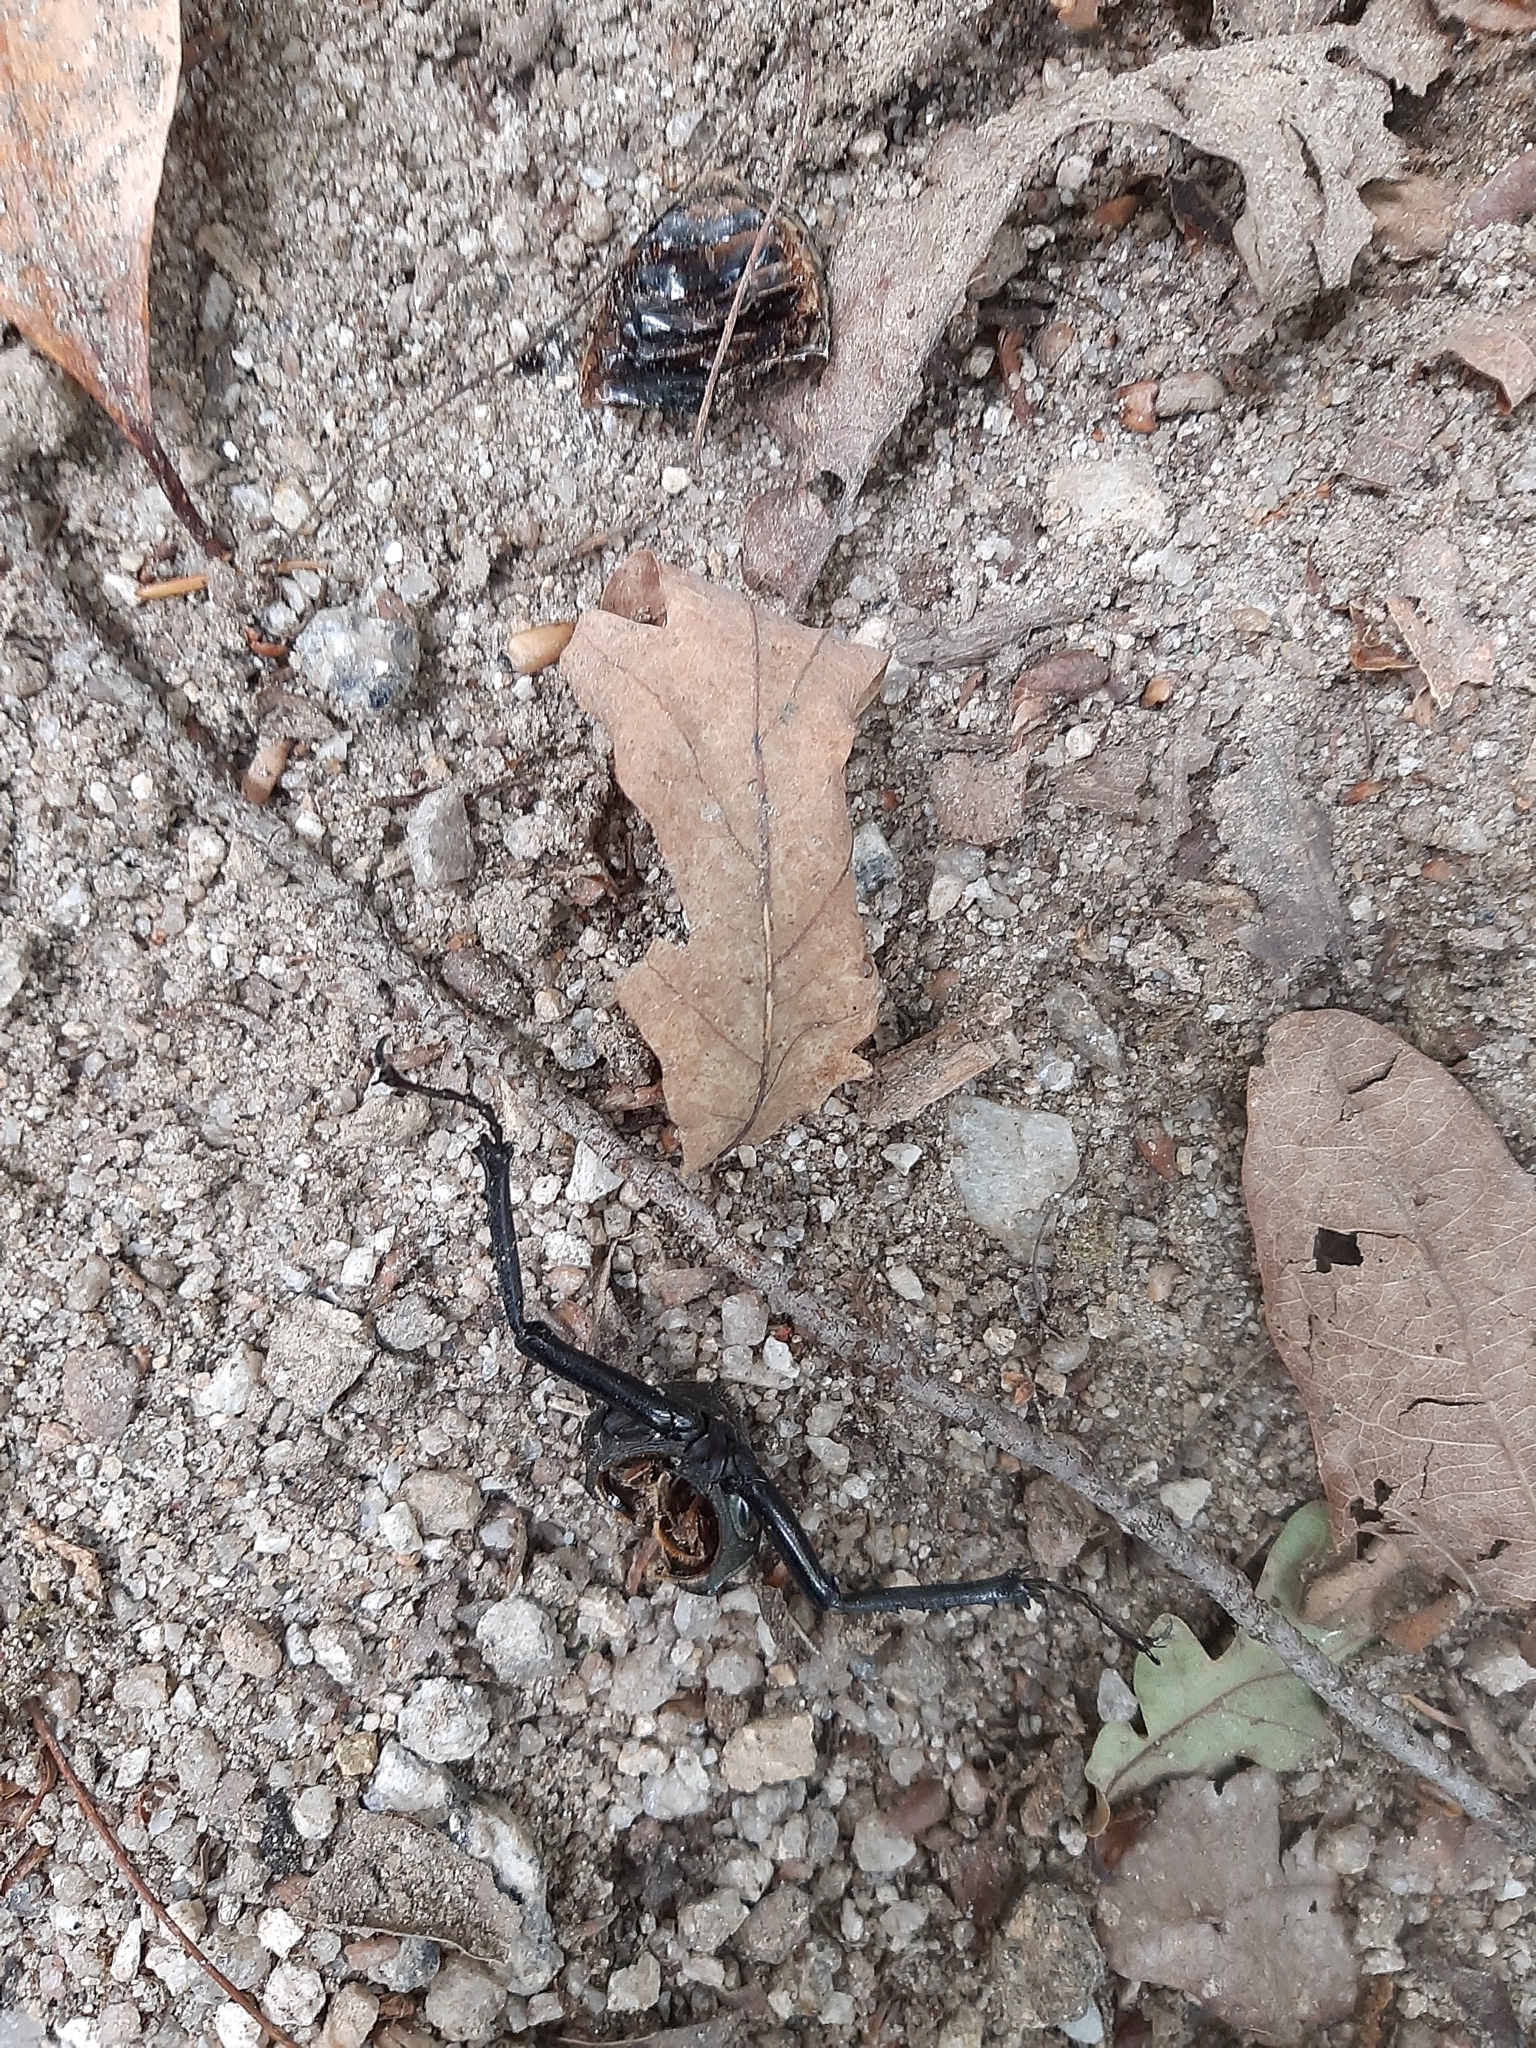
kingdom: Animalia
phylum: Arthropoda
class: Insecta
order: Coleoptera
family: Lucanidae
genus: Lucanus
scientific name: Lucanus cervus
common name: Stag beetle
